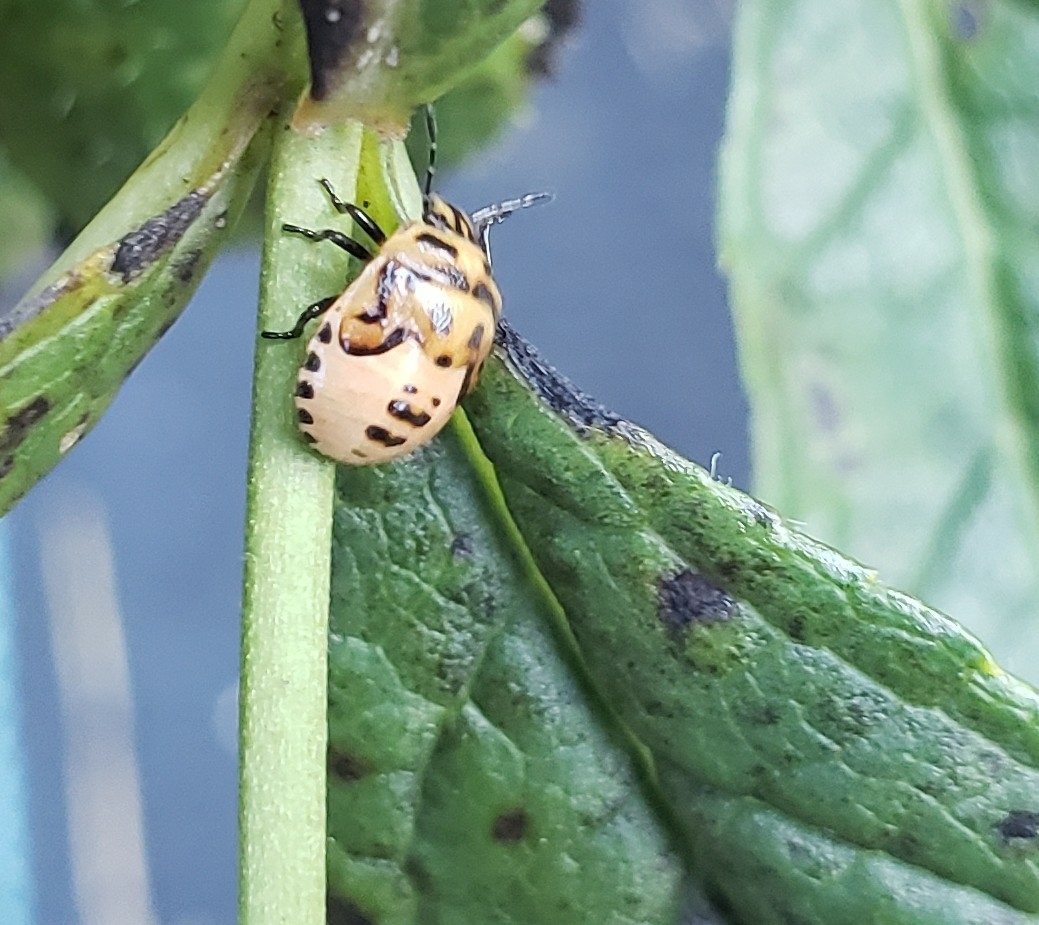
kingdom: Animalia
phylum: Arthropoda
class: Insecta
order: Hemiptera
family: Pentatomidae
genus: Cosmopepla
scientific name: Cosmopepla lintneriana
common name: Twice-stabbed stink bug
